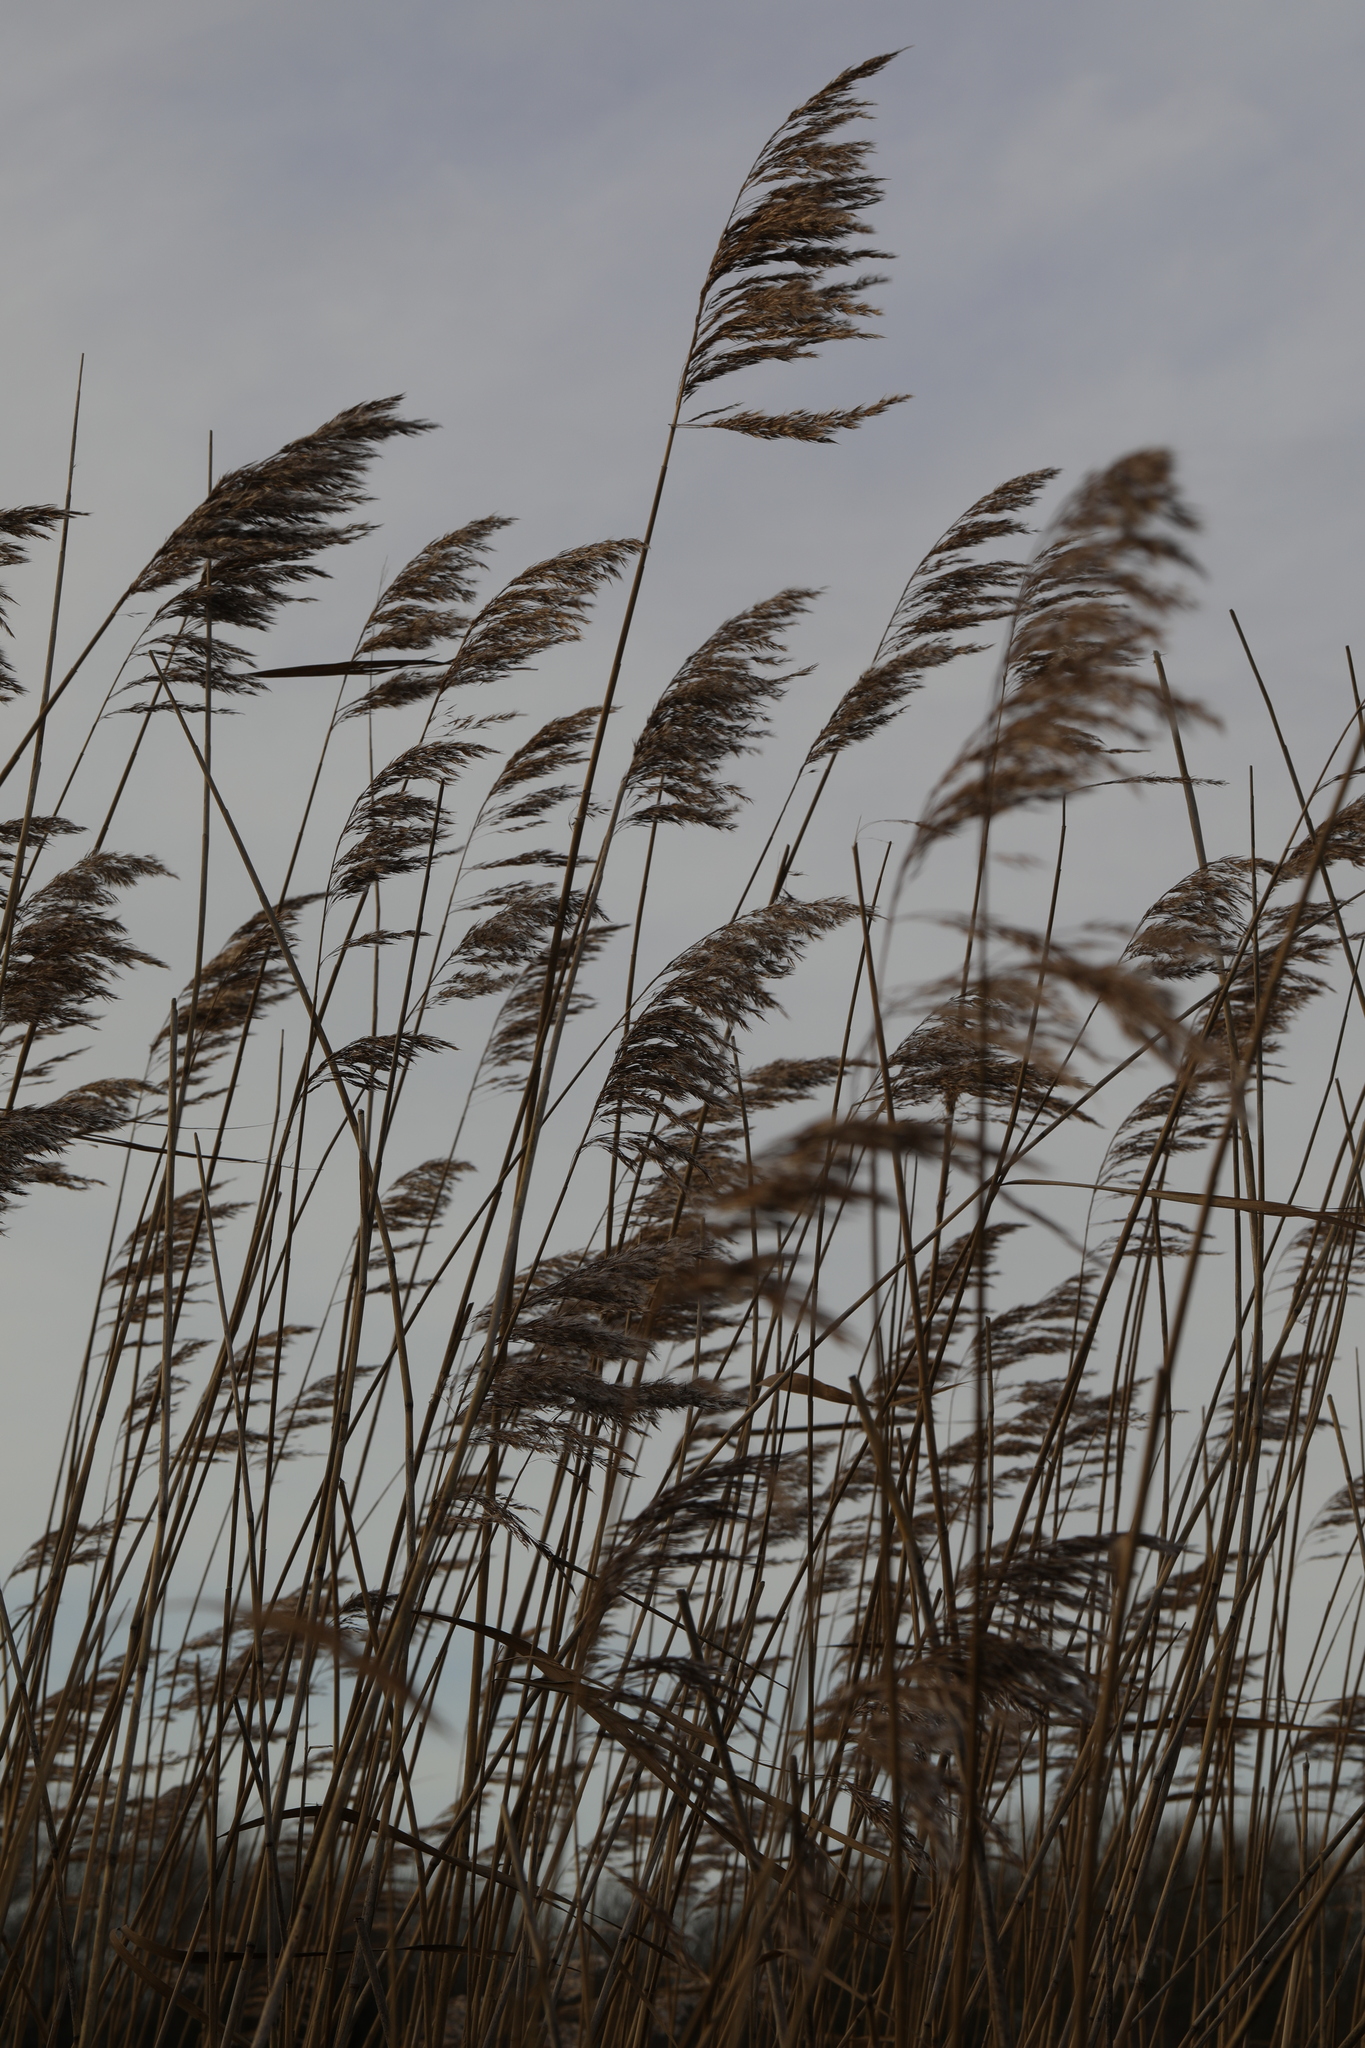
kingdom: Plantae
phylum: Tracheophyta
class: Liliopsida
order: Poales
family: Poaceae
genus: Phragmites
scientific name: Phragmites australis
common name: Common reed
